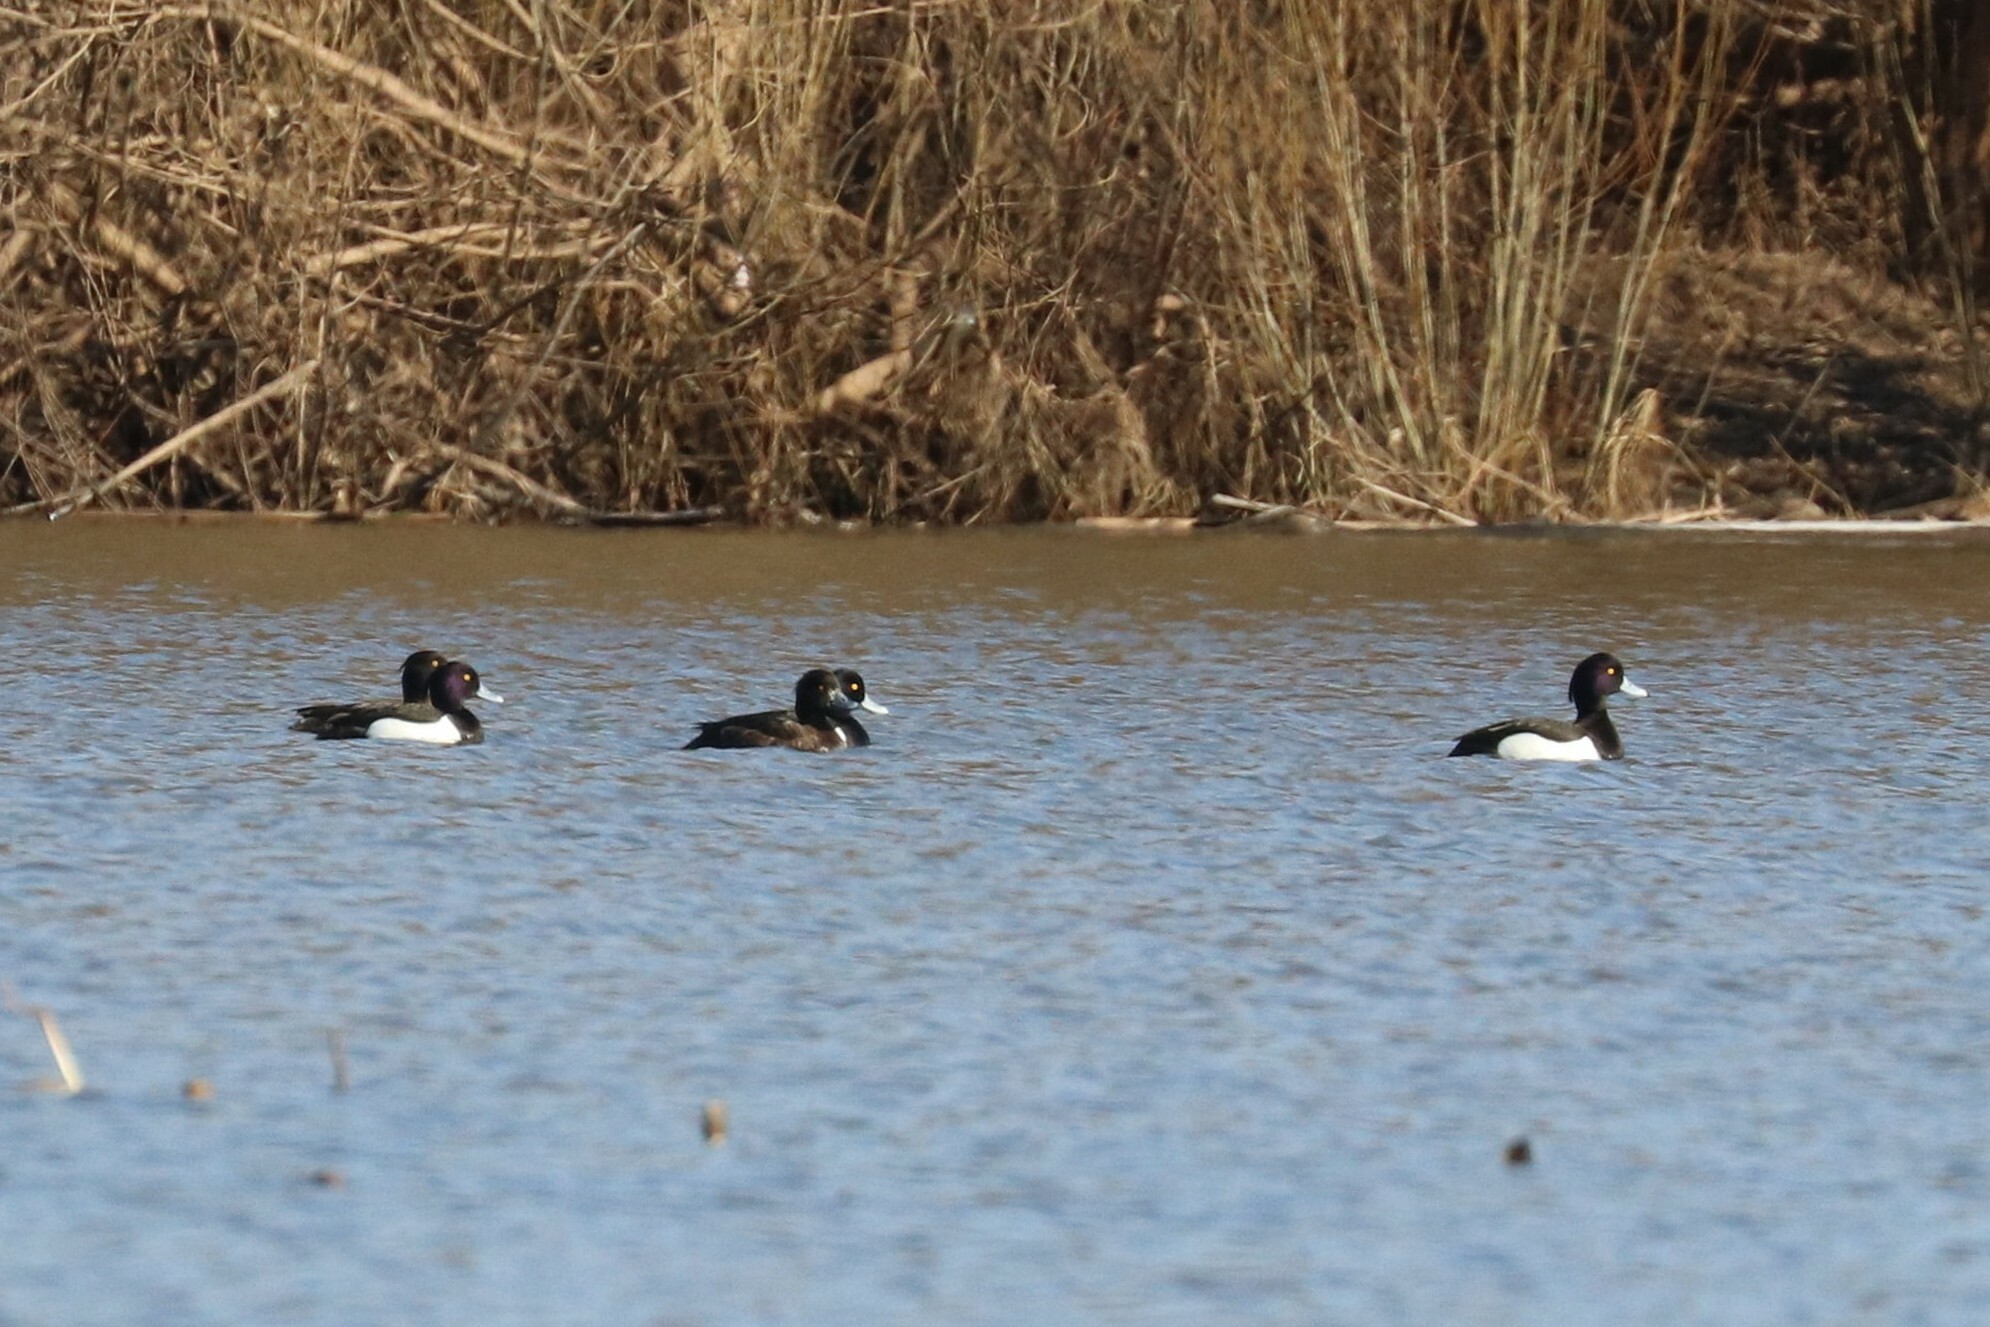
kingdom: Animalia
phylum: Chordata
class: Aves
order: Anseriformes
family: Anatidae
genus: Aythya
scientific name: Aythya fuligula
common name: Tufted duck
